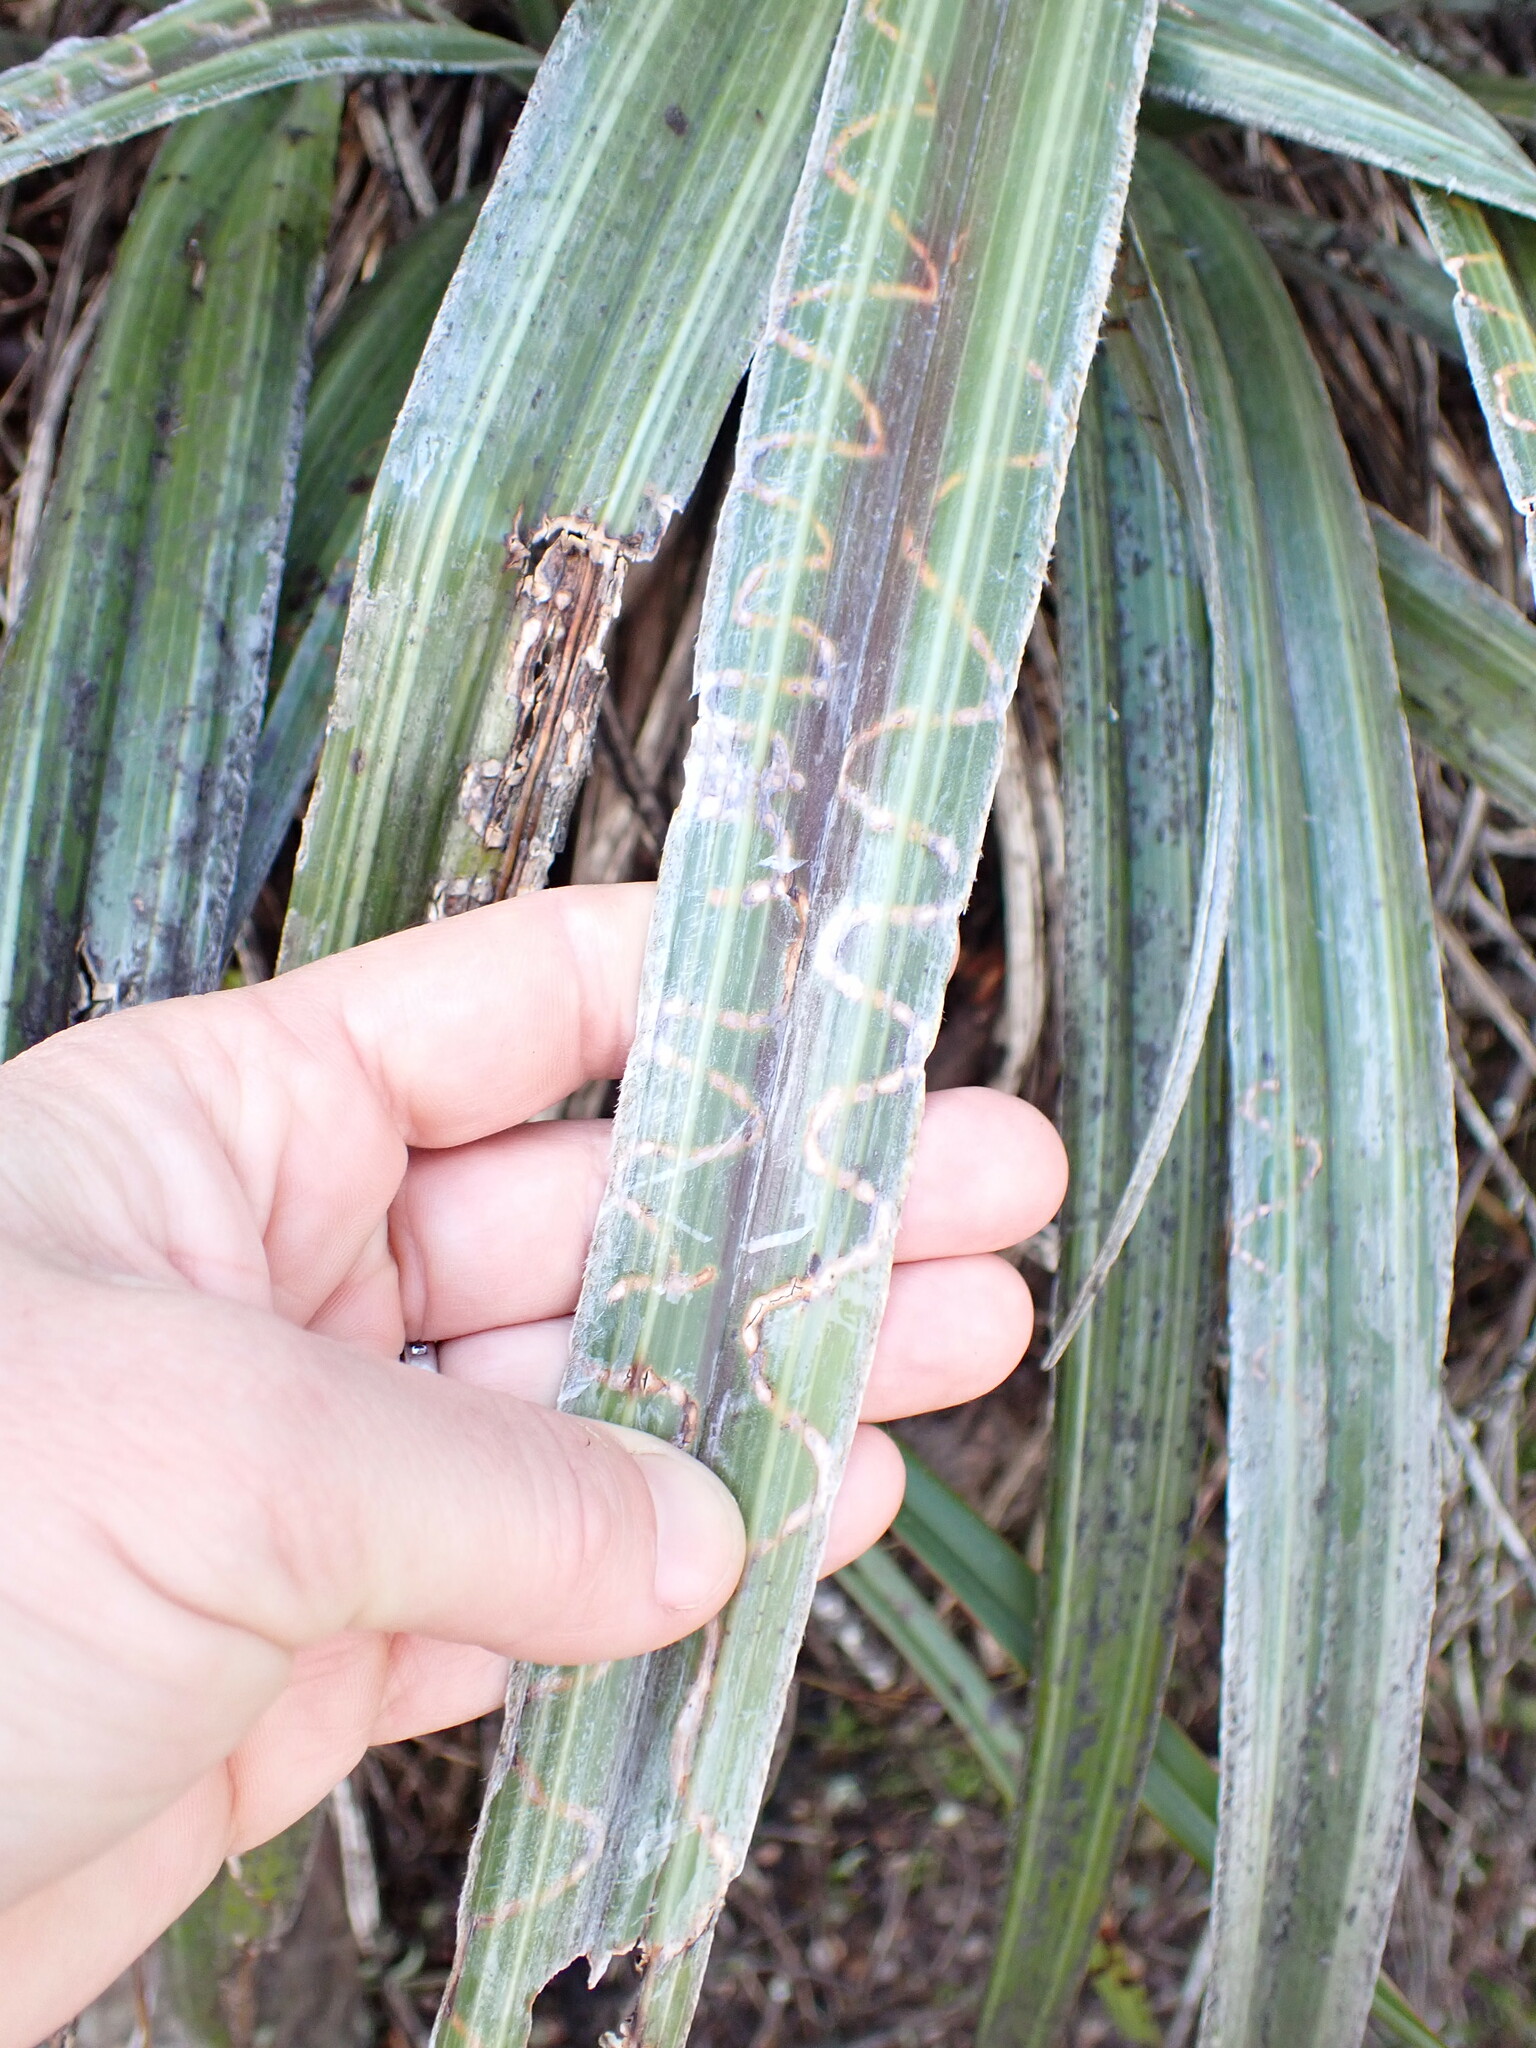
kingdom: Animalia
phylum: Arthropoda
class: Insecta
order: Lepidoptera
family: Plutellidae
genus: Charixena
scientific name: Charixena iridoxa
